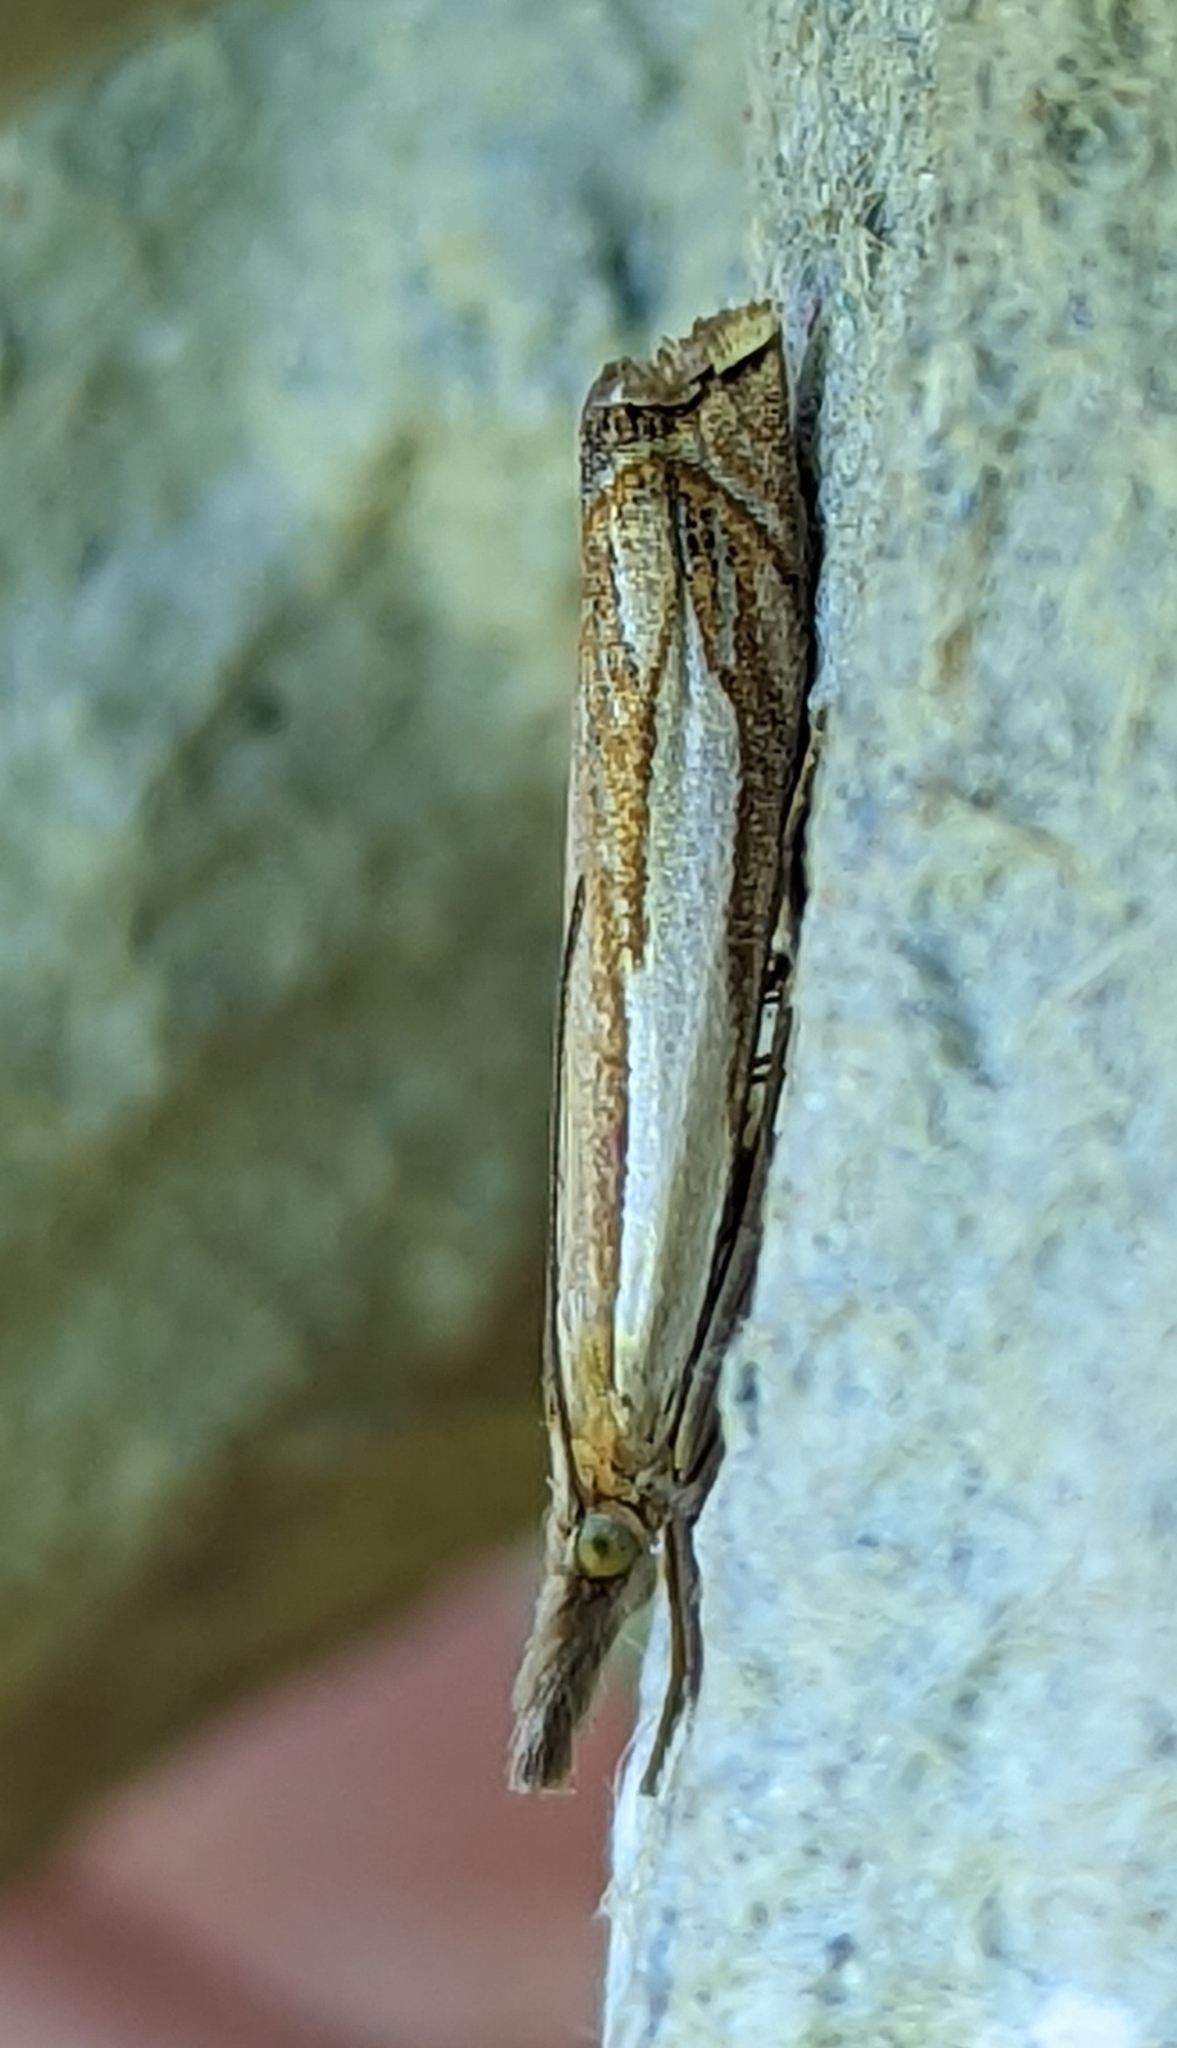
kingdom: Animalia
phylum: Arthropoda
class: Insecta
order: Lepidoptera
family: Crambidae
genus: Crambus
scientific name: Crambus pascuella
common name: Inlaid grass-veneer
